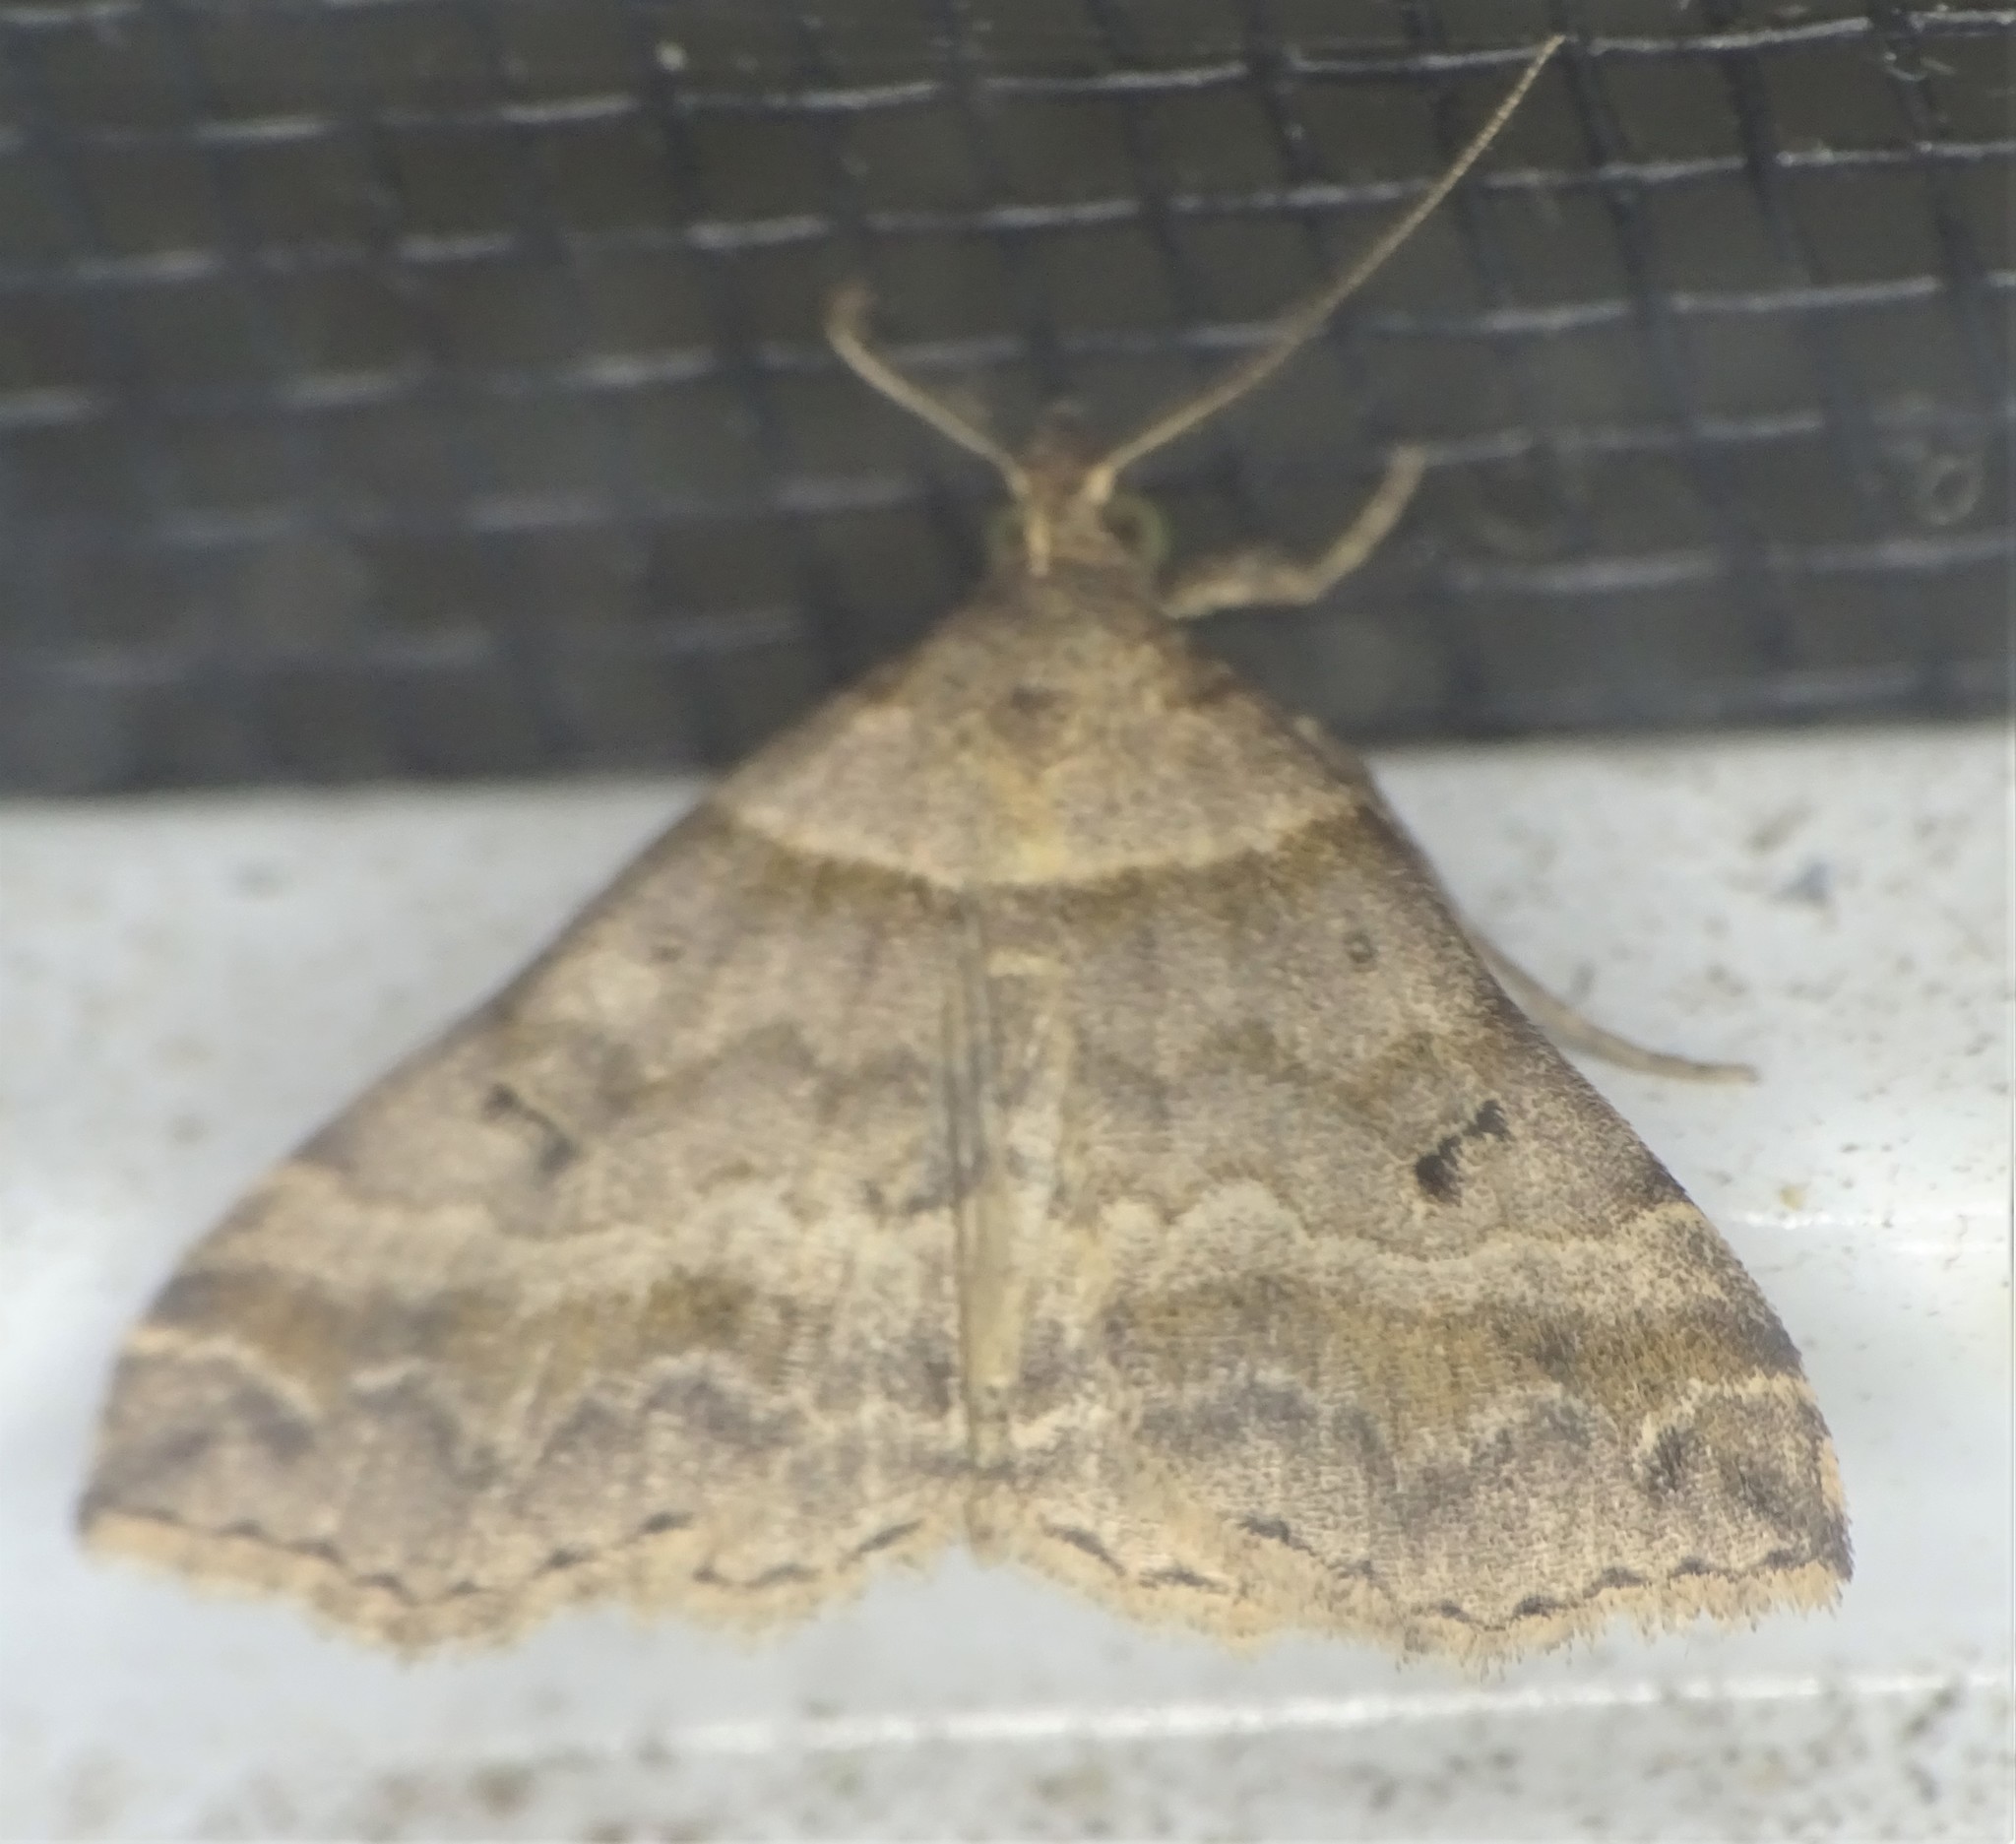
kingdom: Animalia
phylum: Arthropoda
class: Insecta
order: Lepidoptera
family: Erebidae
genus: Phaeolita
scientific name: Phaeolita pyramusalis
